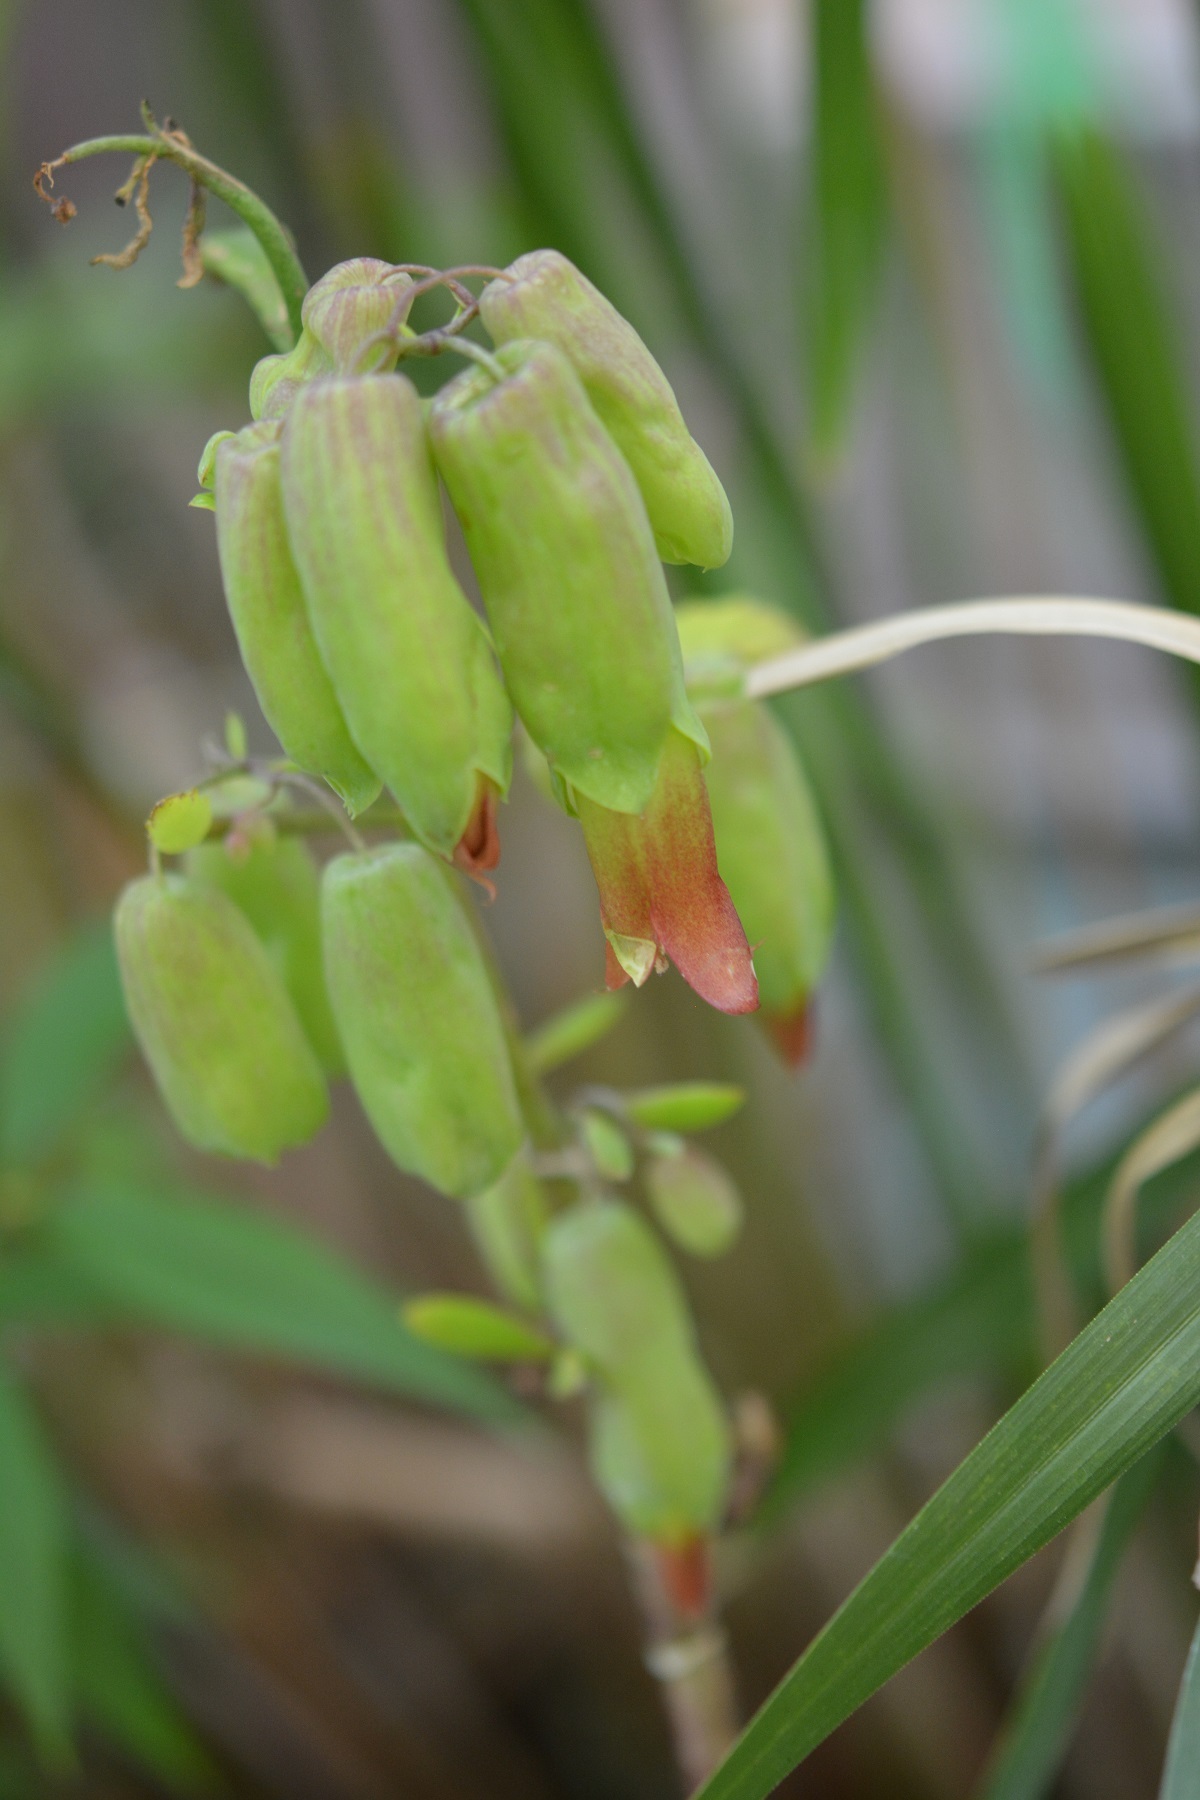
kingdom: Plantae
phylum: Tracheophyta
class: Magnoliopsida
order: Saxifragales
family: Crassulaceae
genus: Kalanchoe
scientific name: Kalanchoe pinnata
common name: Cathedral bells
